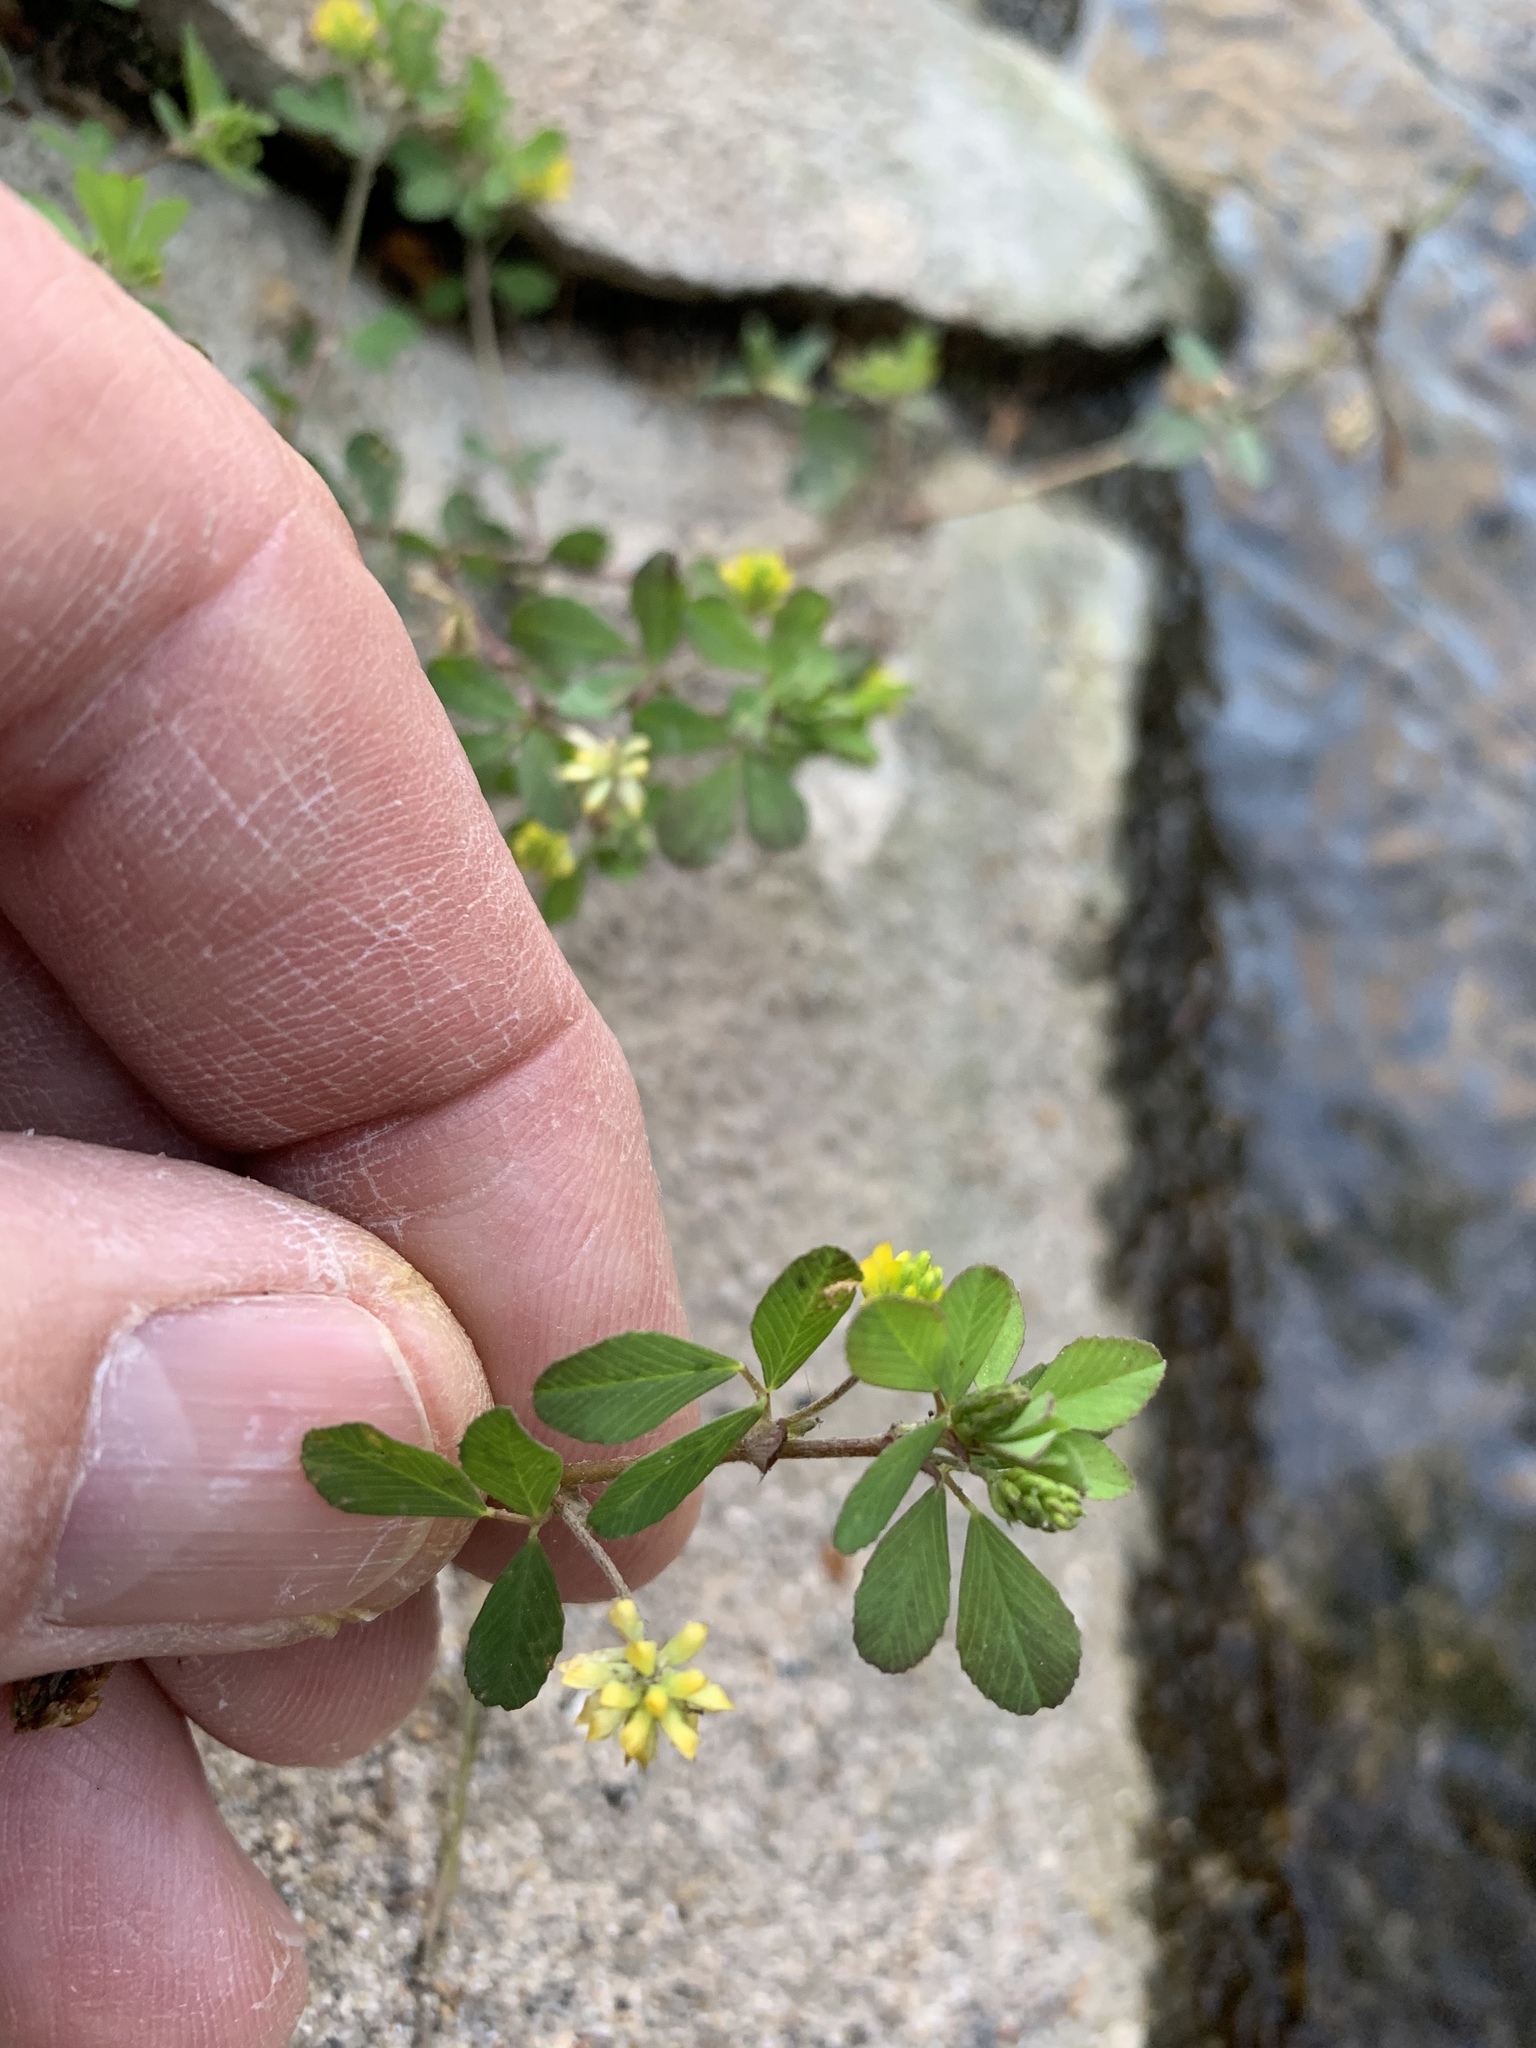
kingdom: Plantae
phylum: Tracheophyta
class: Magnoliopsida
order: Fabales
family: Fabaceae
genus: Trifolium
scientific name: Trifolium dubium
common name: Suckling clover
